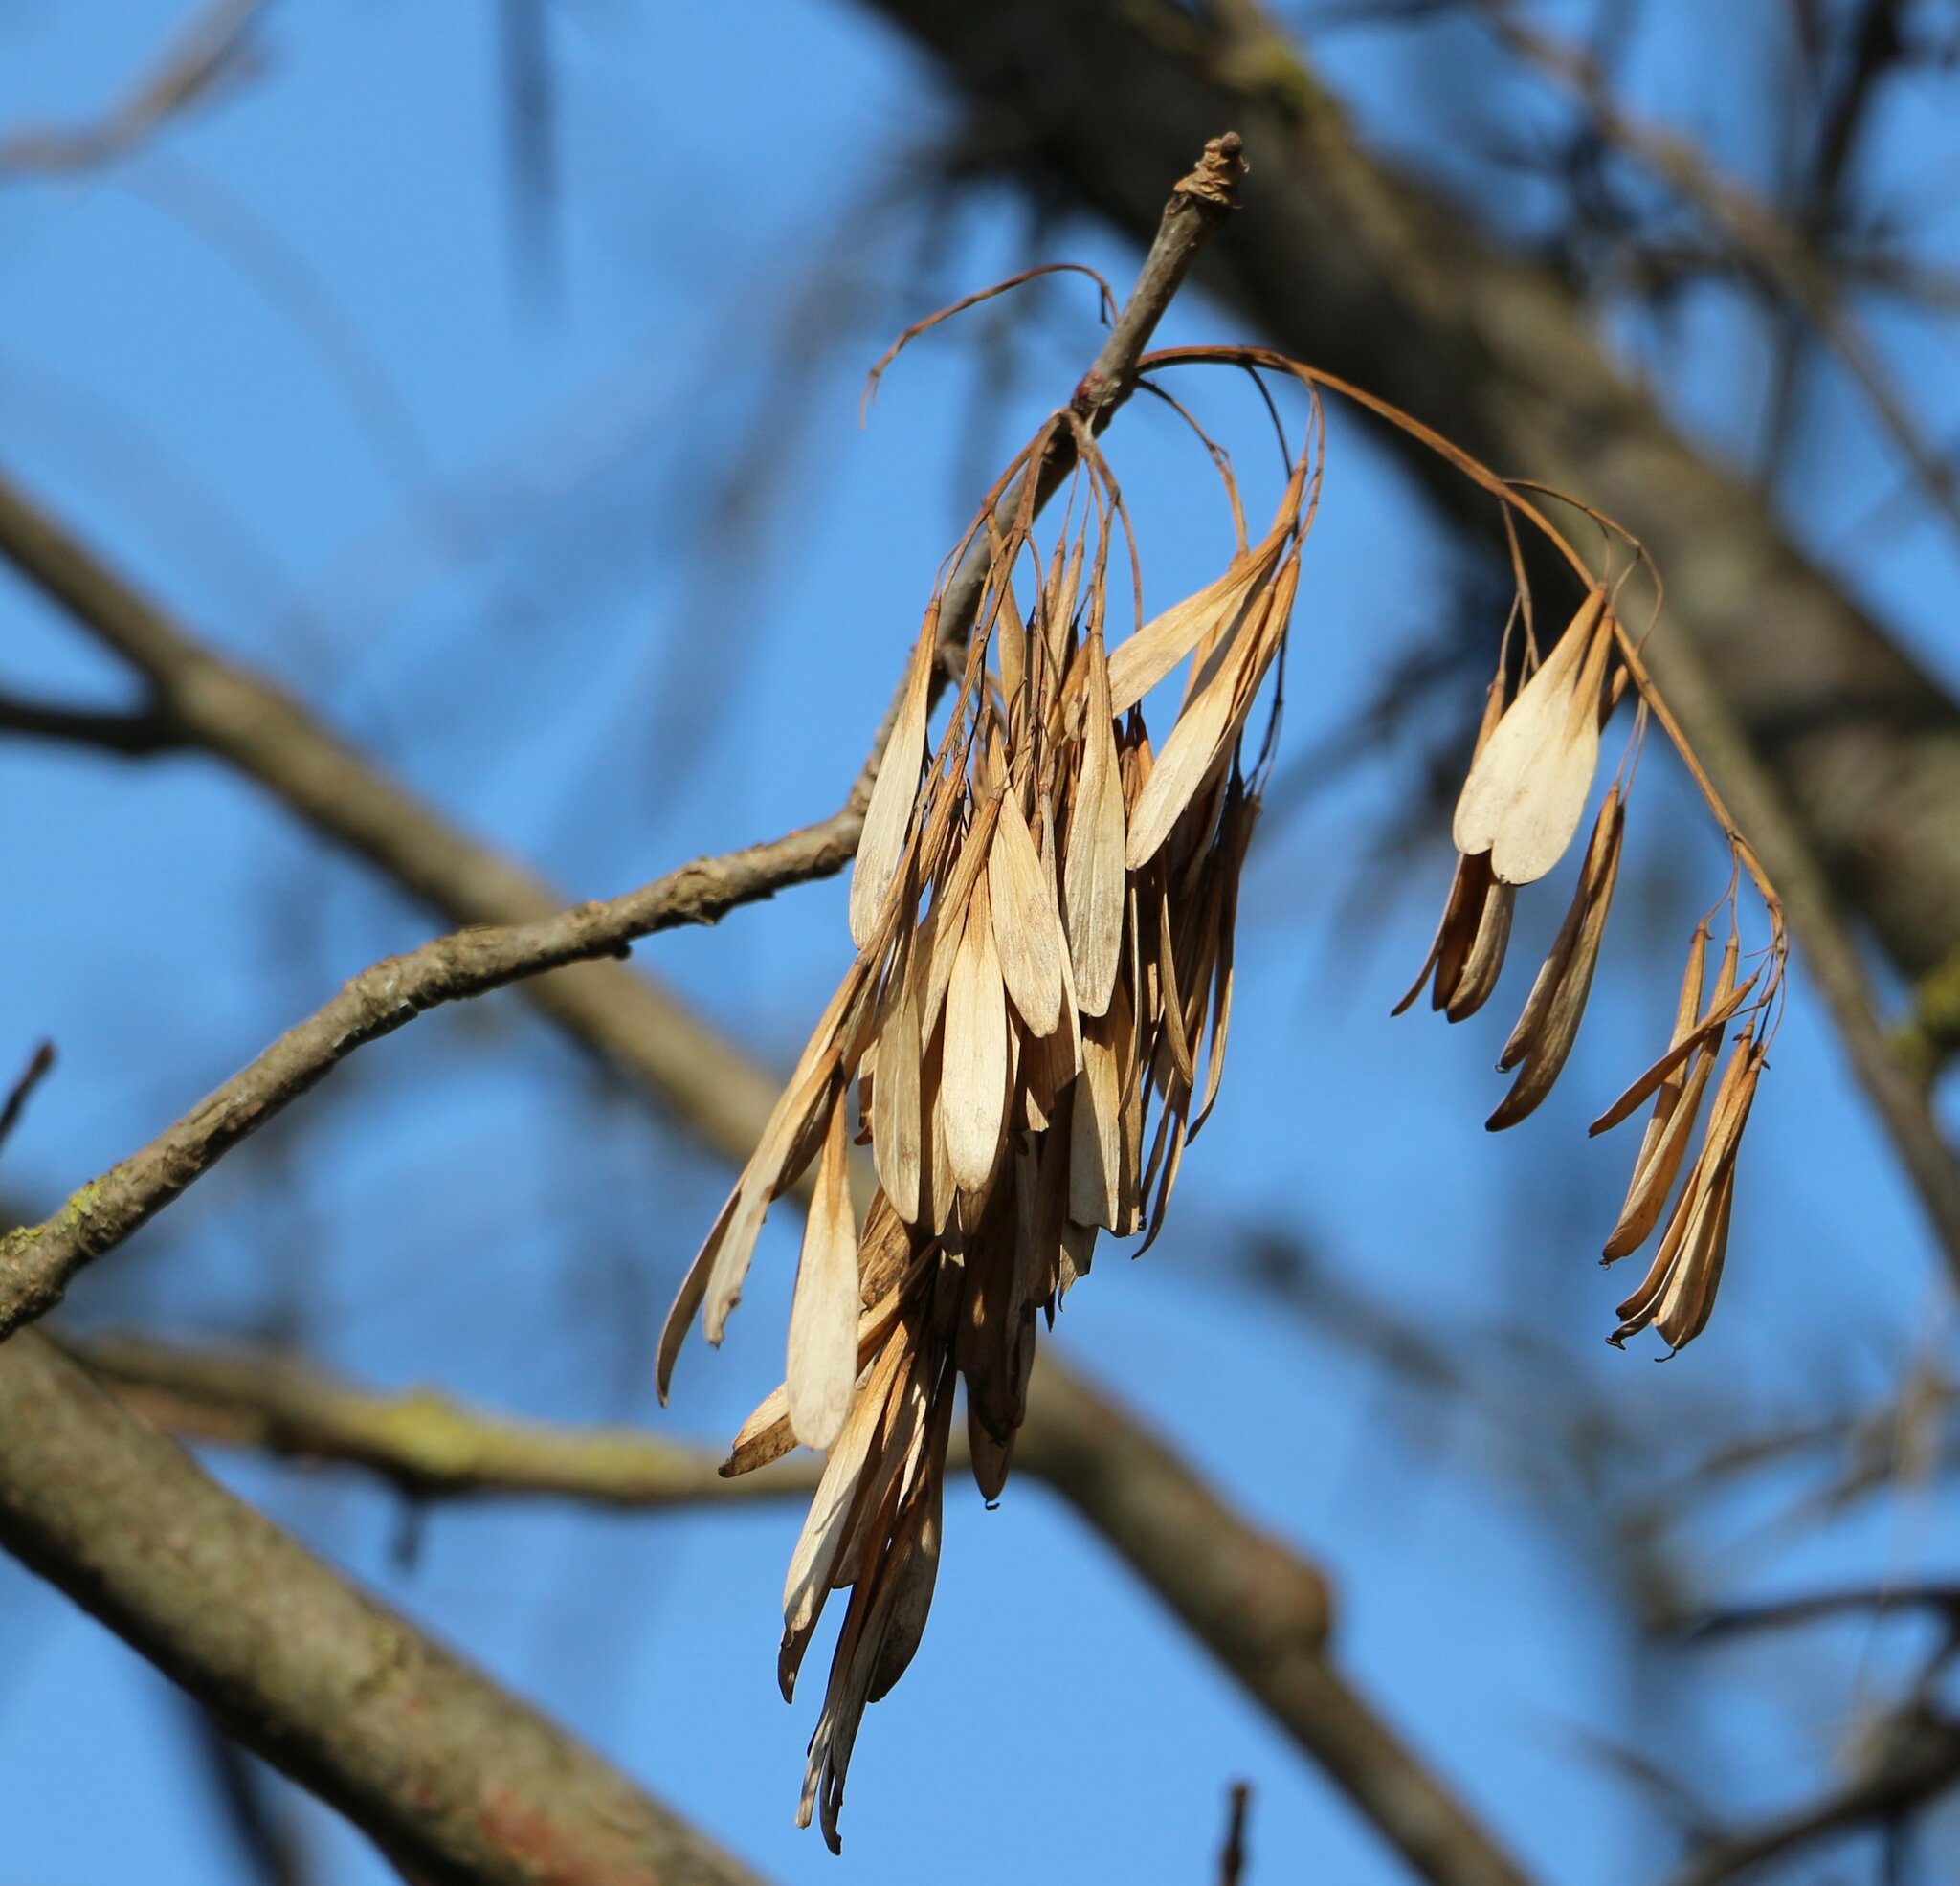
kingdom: Plantae
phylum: Tracheophyta
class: Magnoliopsida
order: Lamiales
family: Oleaceae
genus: Fraxinus
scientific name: Fraxinus pennsylvanica
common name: Green ash
